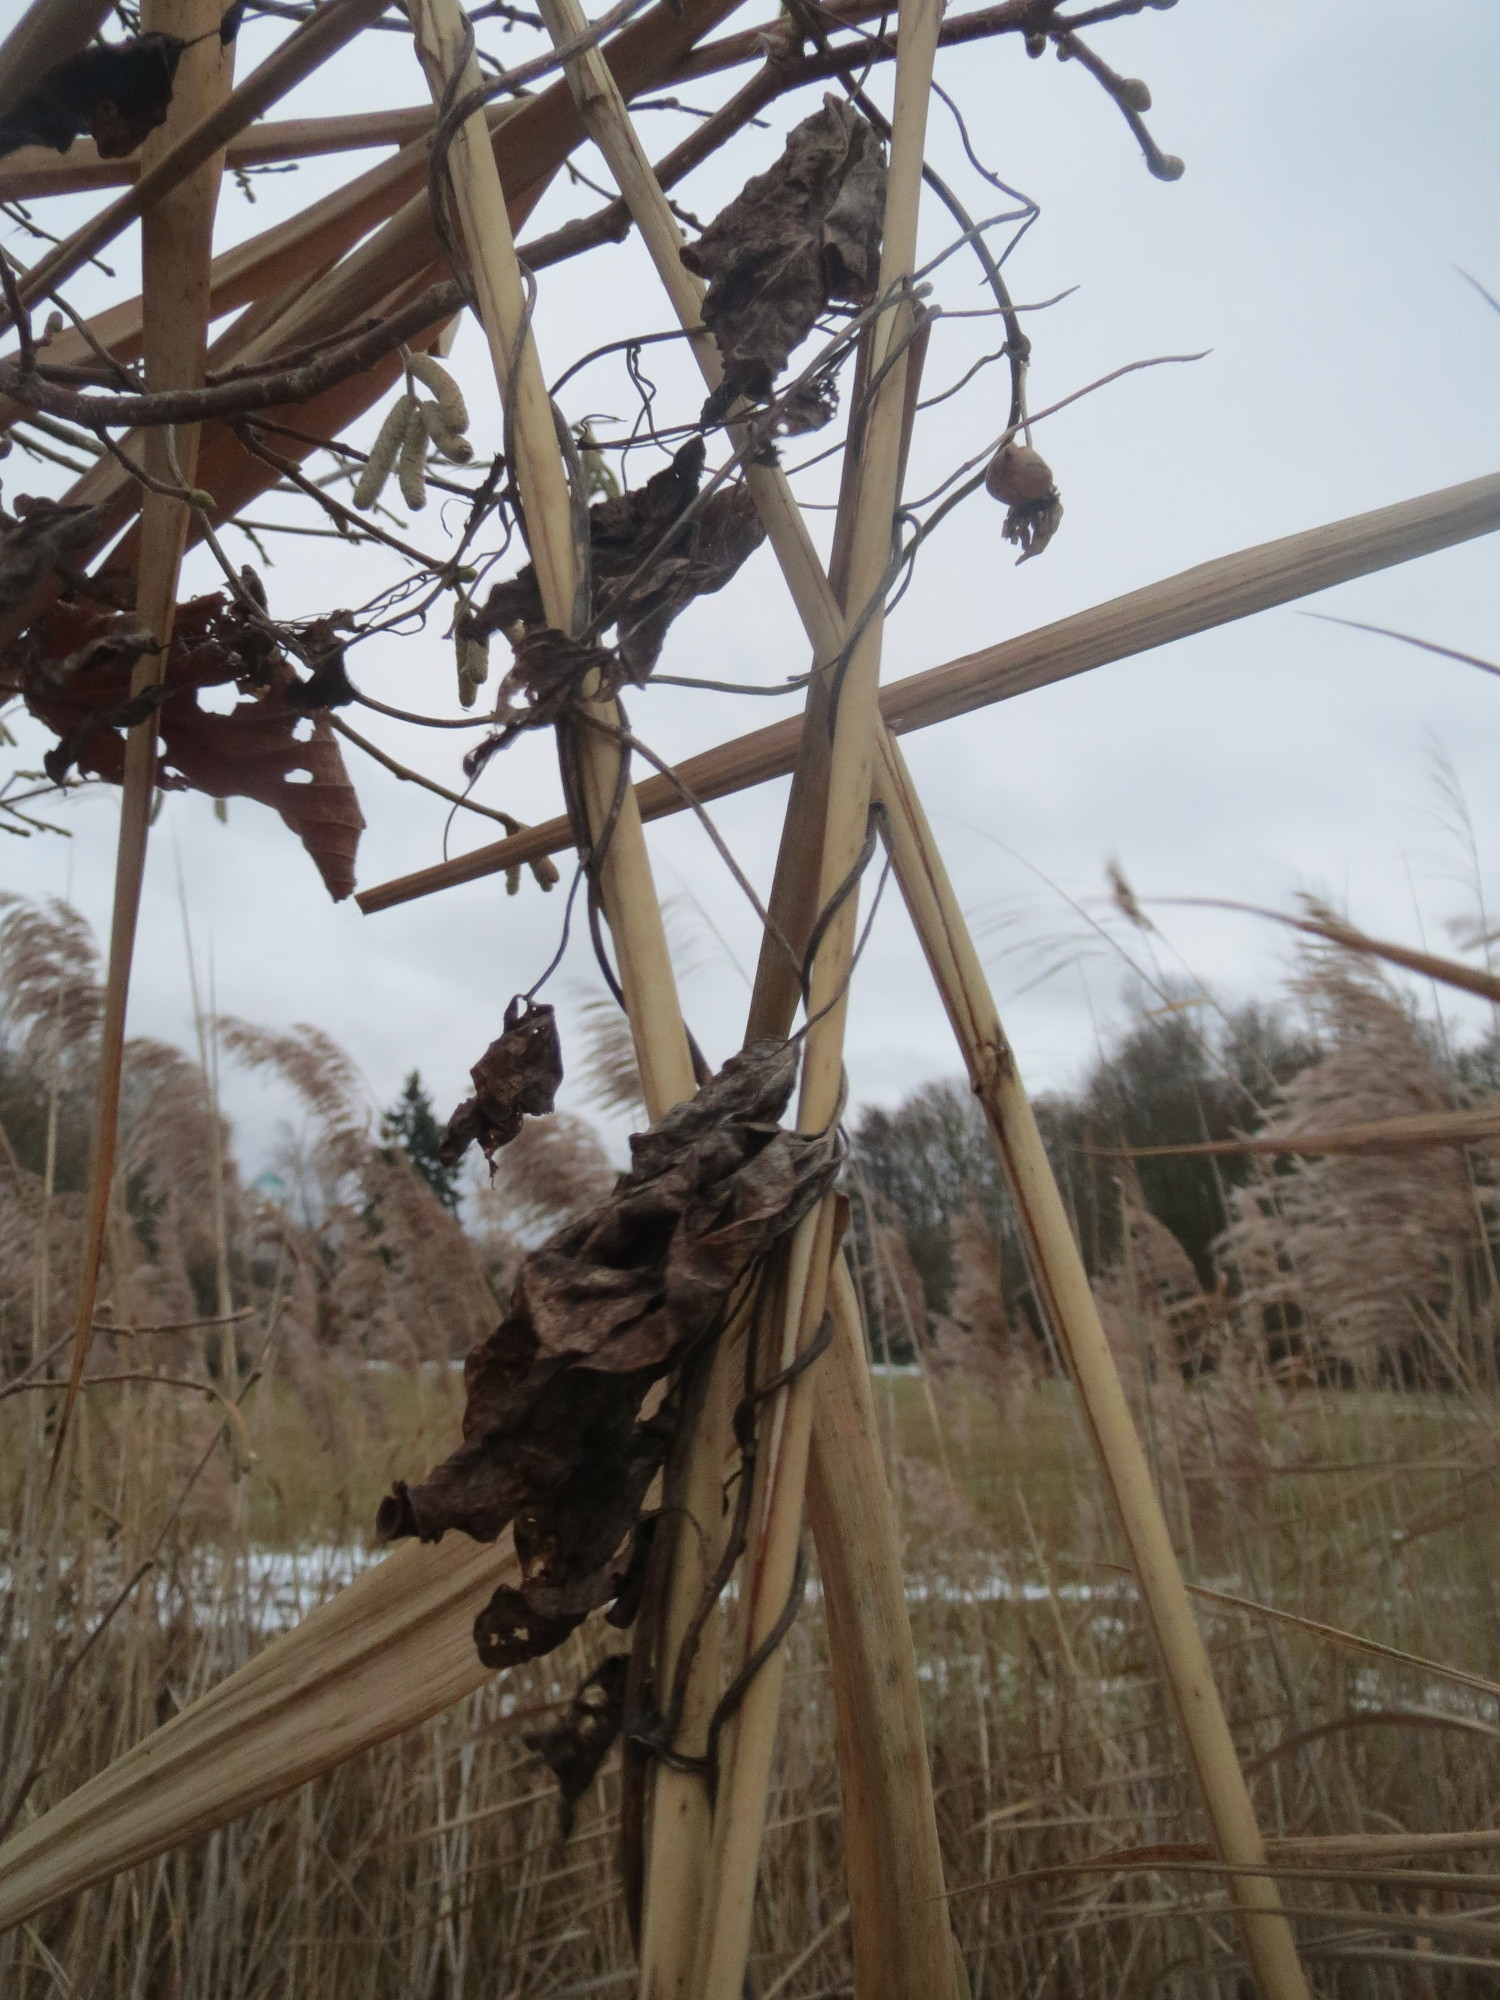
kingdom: Plantae
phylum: Tracheophyta
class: Magnoliopsida
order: Solanales
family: Convolvulaceae
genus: Calystegia
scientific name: Calystegia sepium
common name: Hedge bindweed
